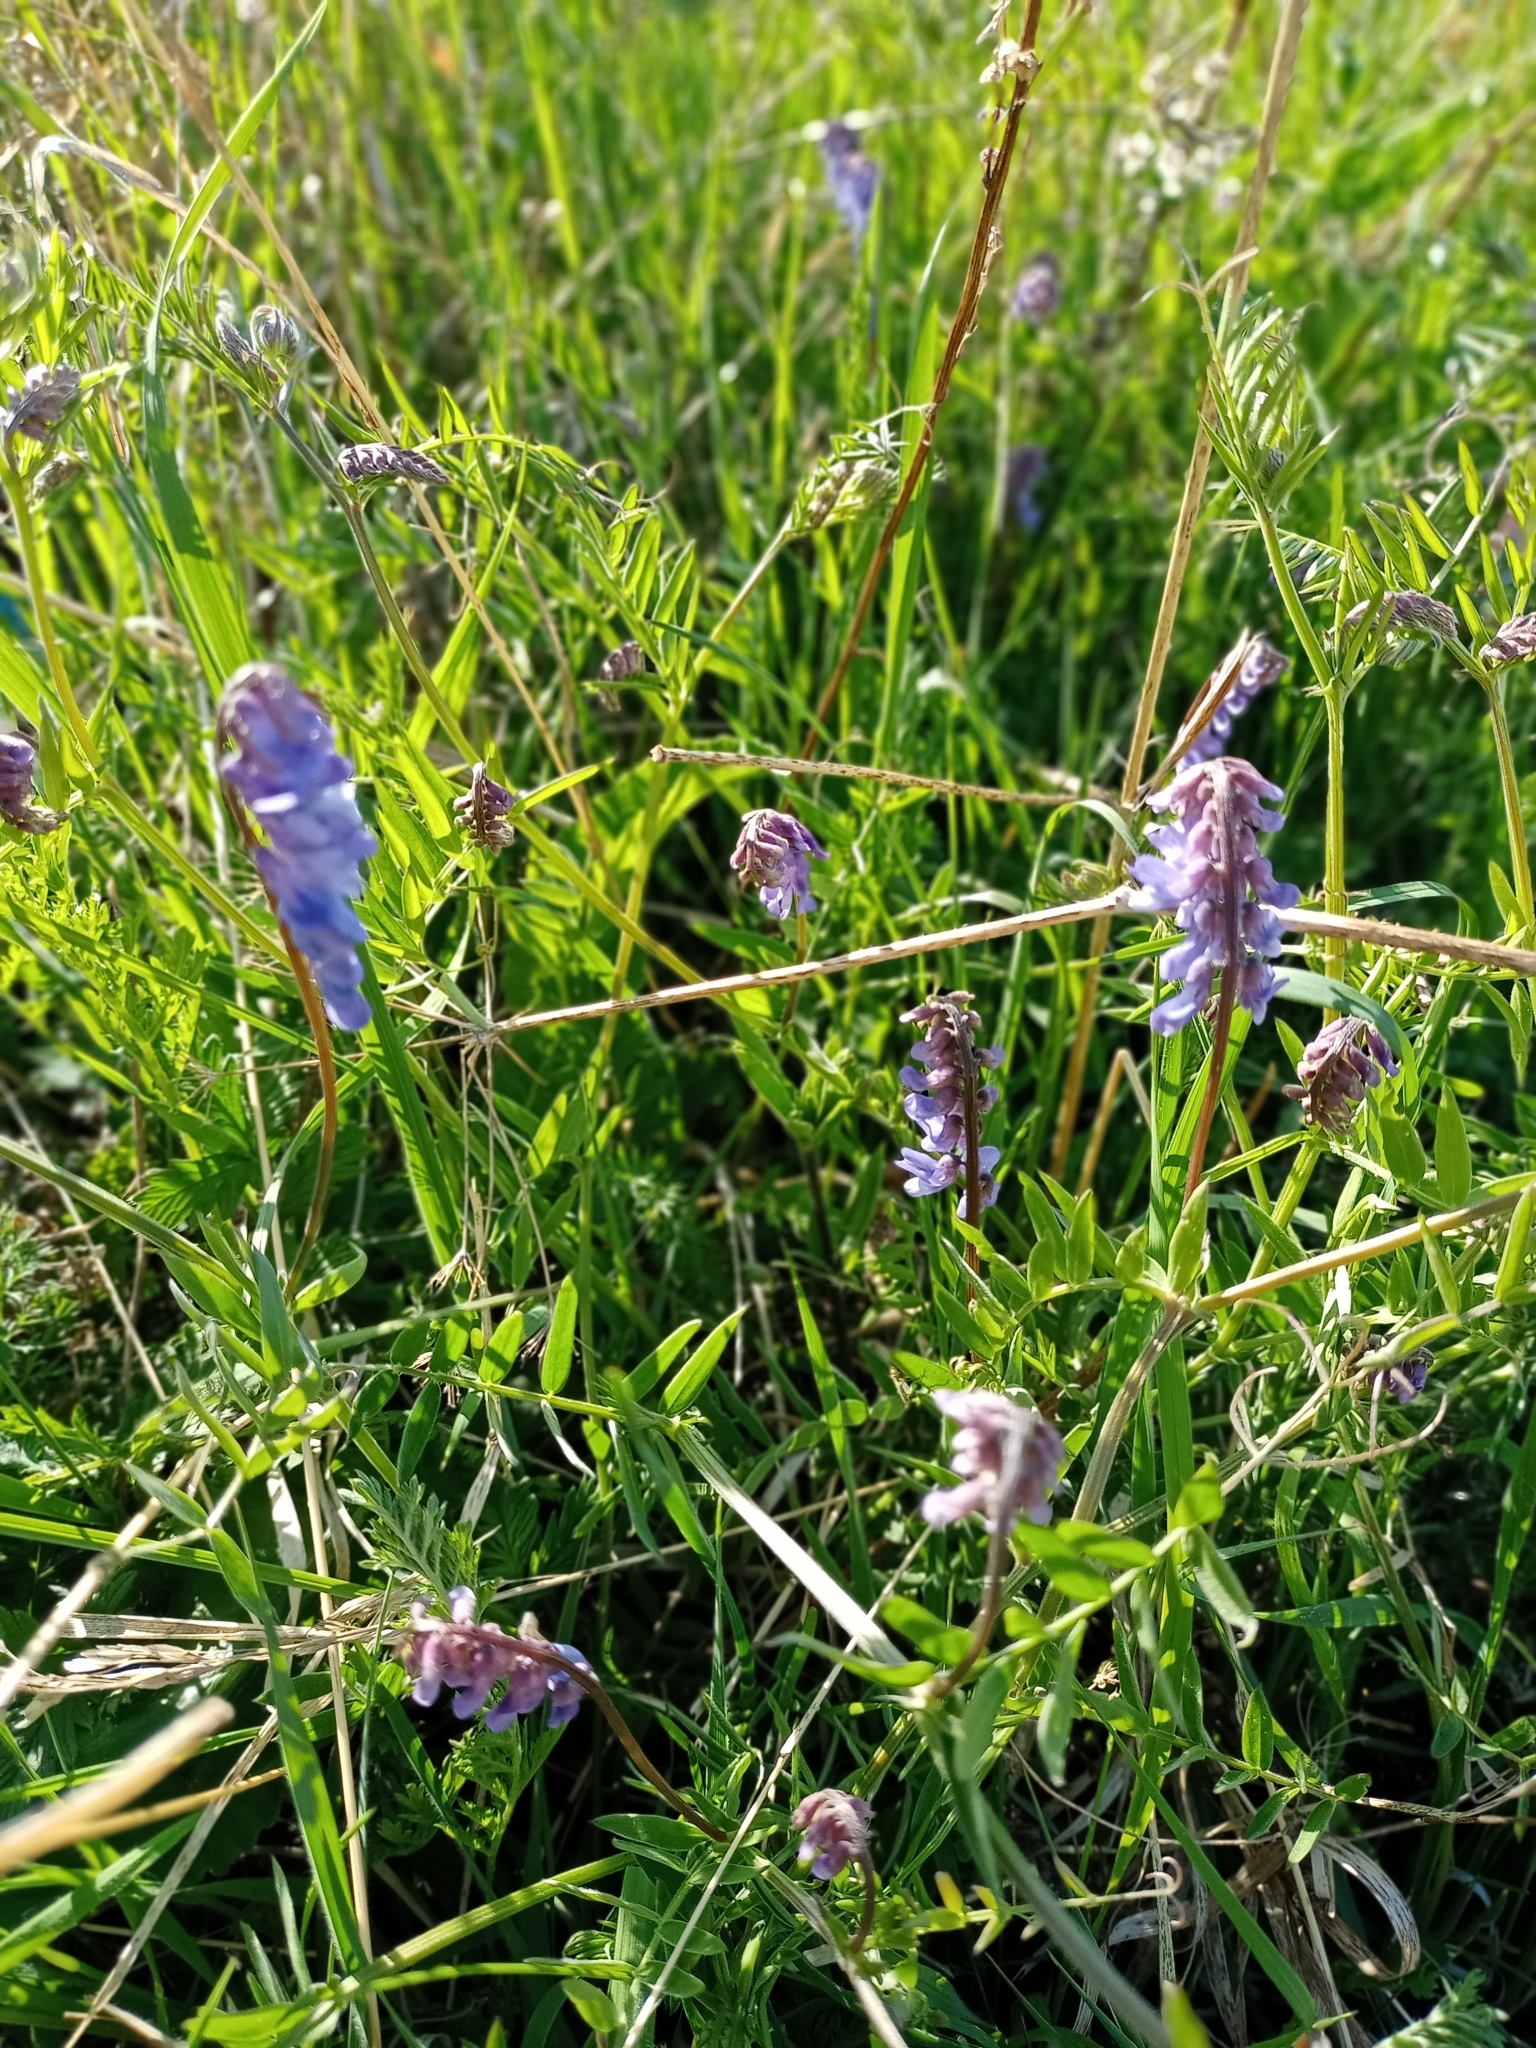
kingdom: Plantae
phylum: Tracheophyta
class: Magnoliopsida
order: Fabales
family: Fabaceae
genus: Vicia
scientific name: Vicia cracca
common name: Bird vetch
